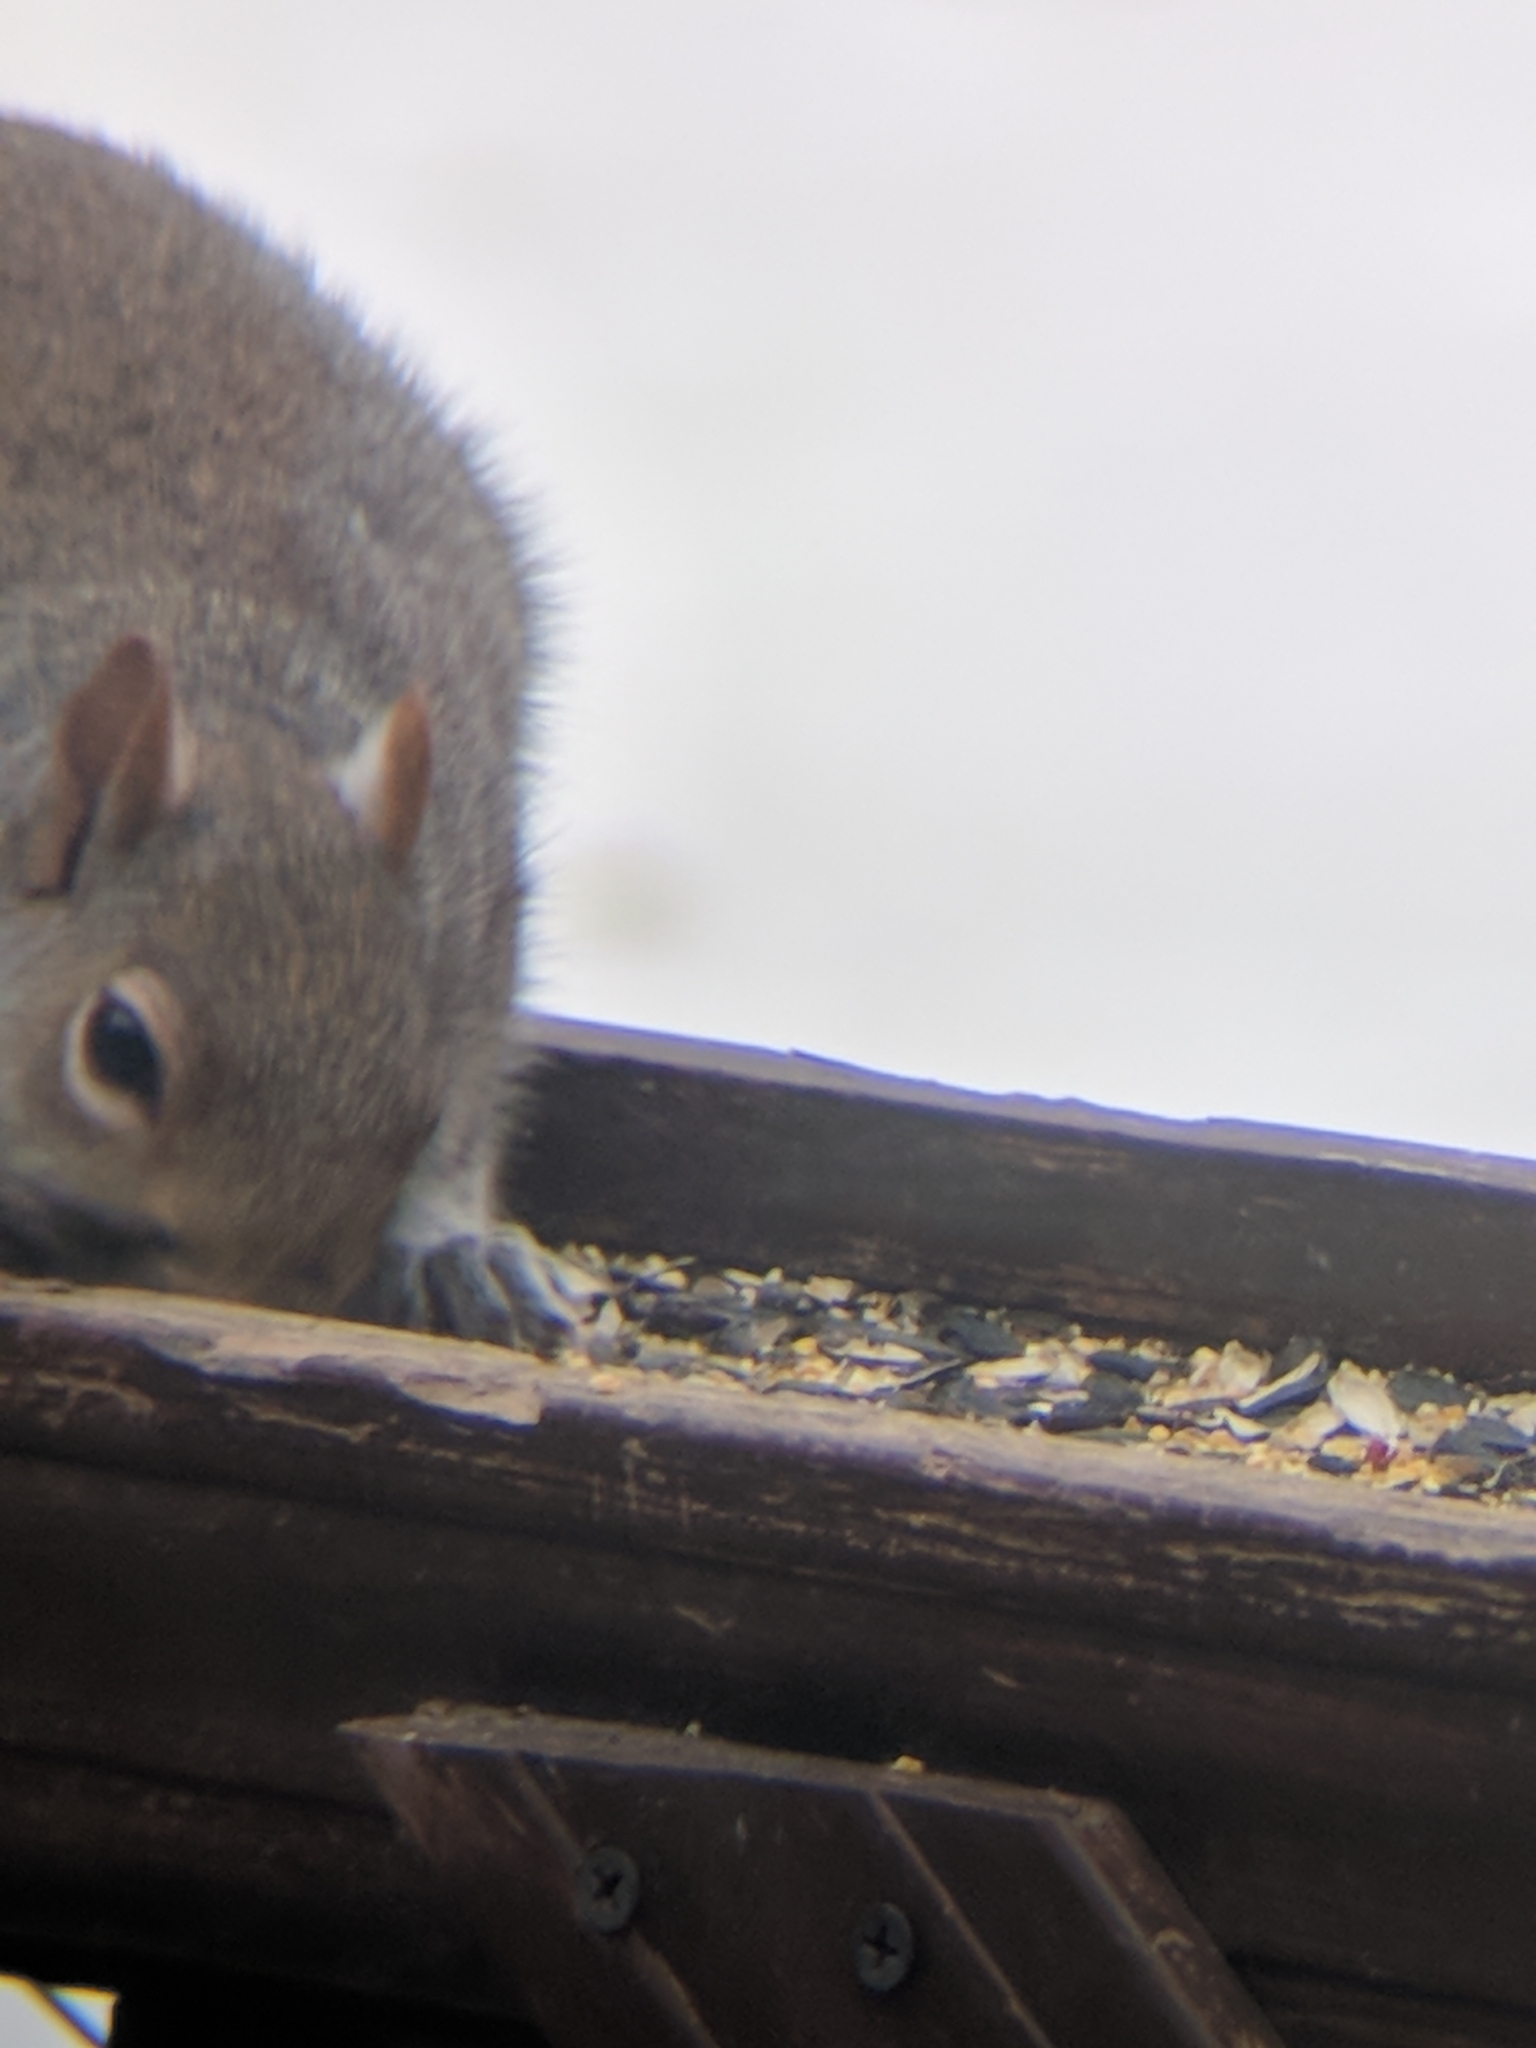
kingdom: Animalia
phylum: Chordata
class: Mammalia
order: Rodentia
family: Sciuridae
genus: Sciurus
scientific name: Sciurus carolinensis
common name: Eastern gray squirrel
